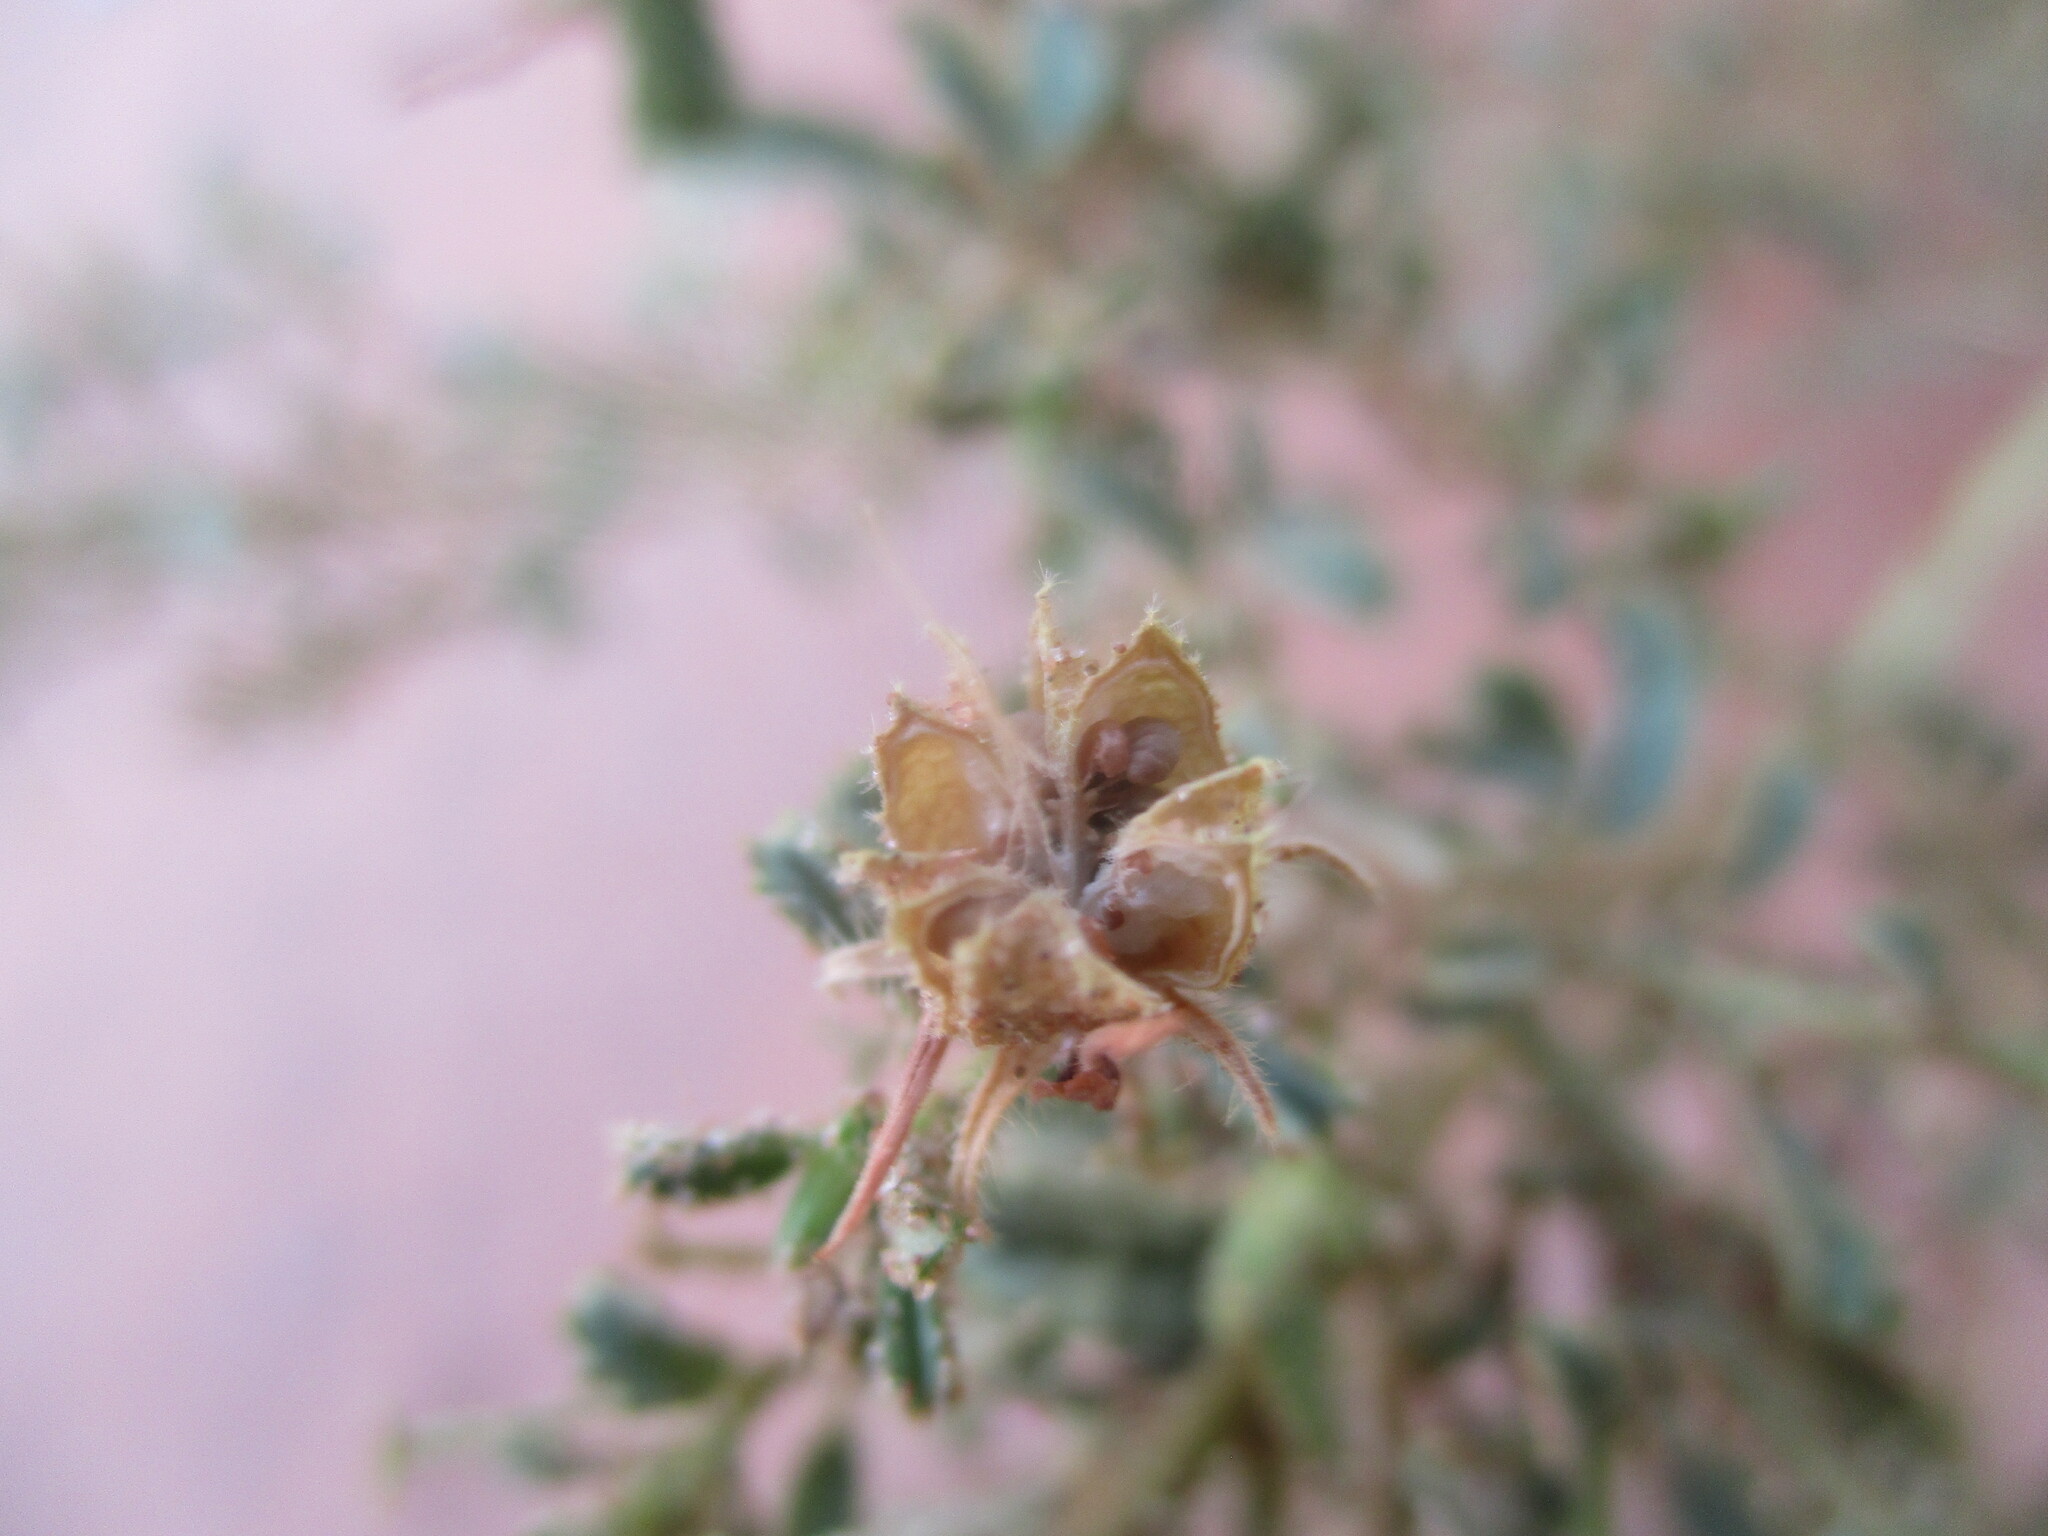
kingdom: Plantae
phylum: Tracheophyta
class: Magnoliopsida
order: Malvales
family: Malvaceae
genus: Hermannia
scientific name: Hermannia eenii
